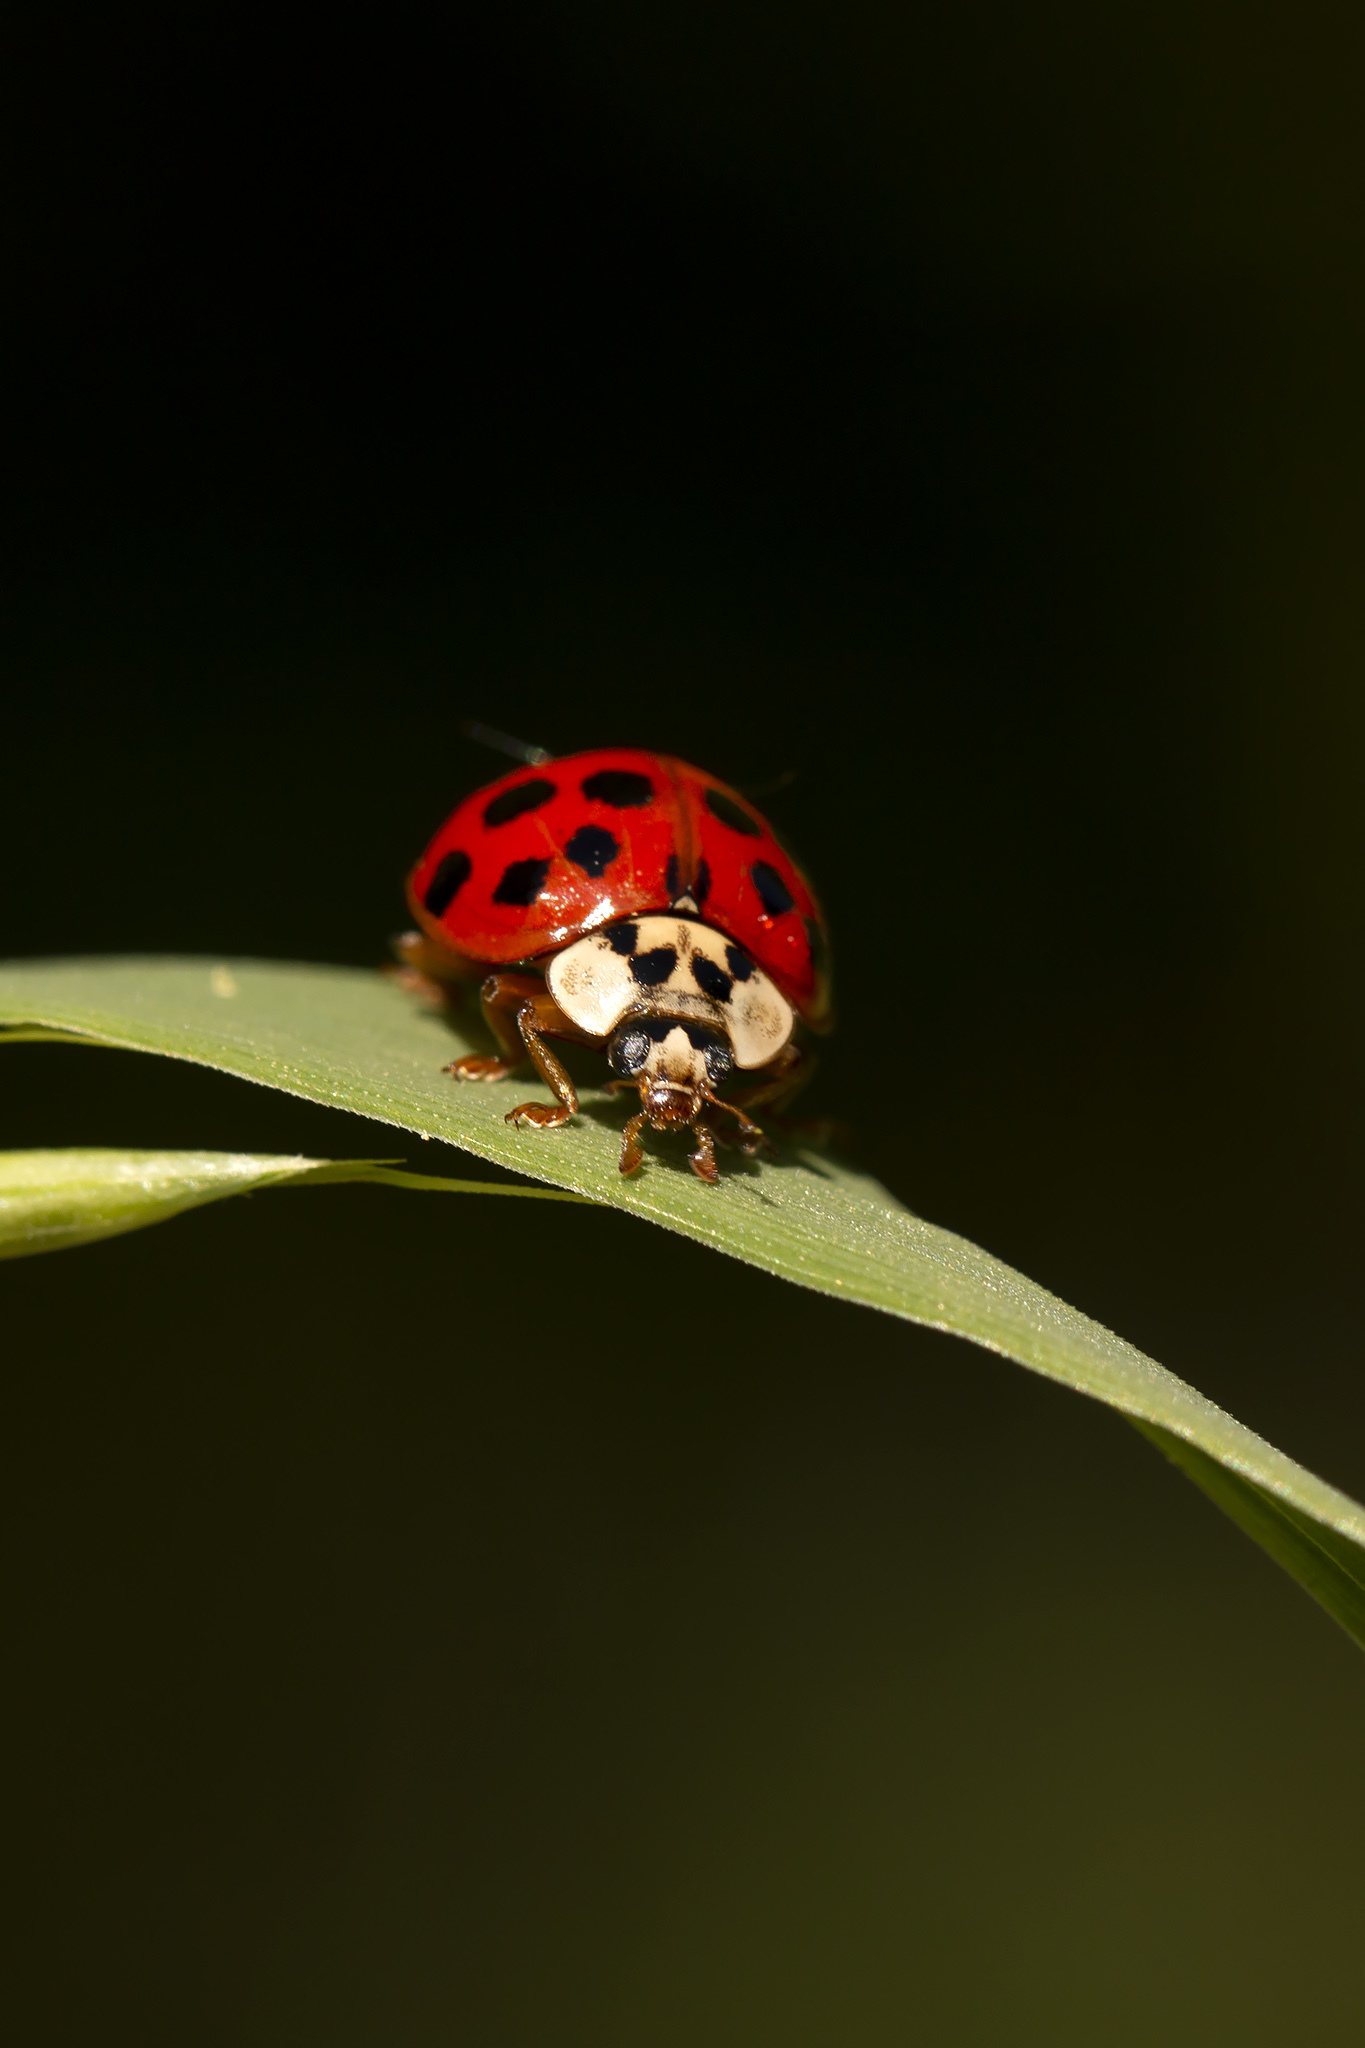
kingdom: Animalia
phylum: Arthropoda
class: Insecta
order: Coleoptera
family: Coccinellidae
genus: Harmonia
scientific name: Harmonia axyridis
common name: Harlequin ladybird
